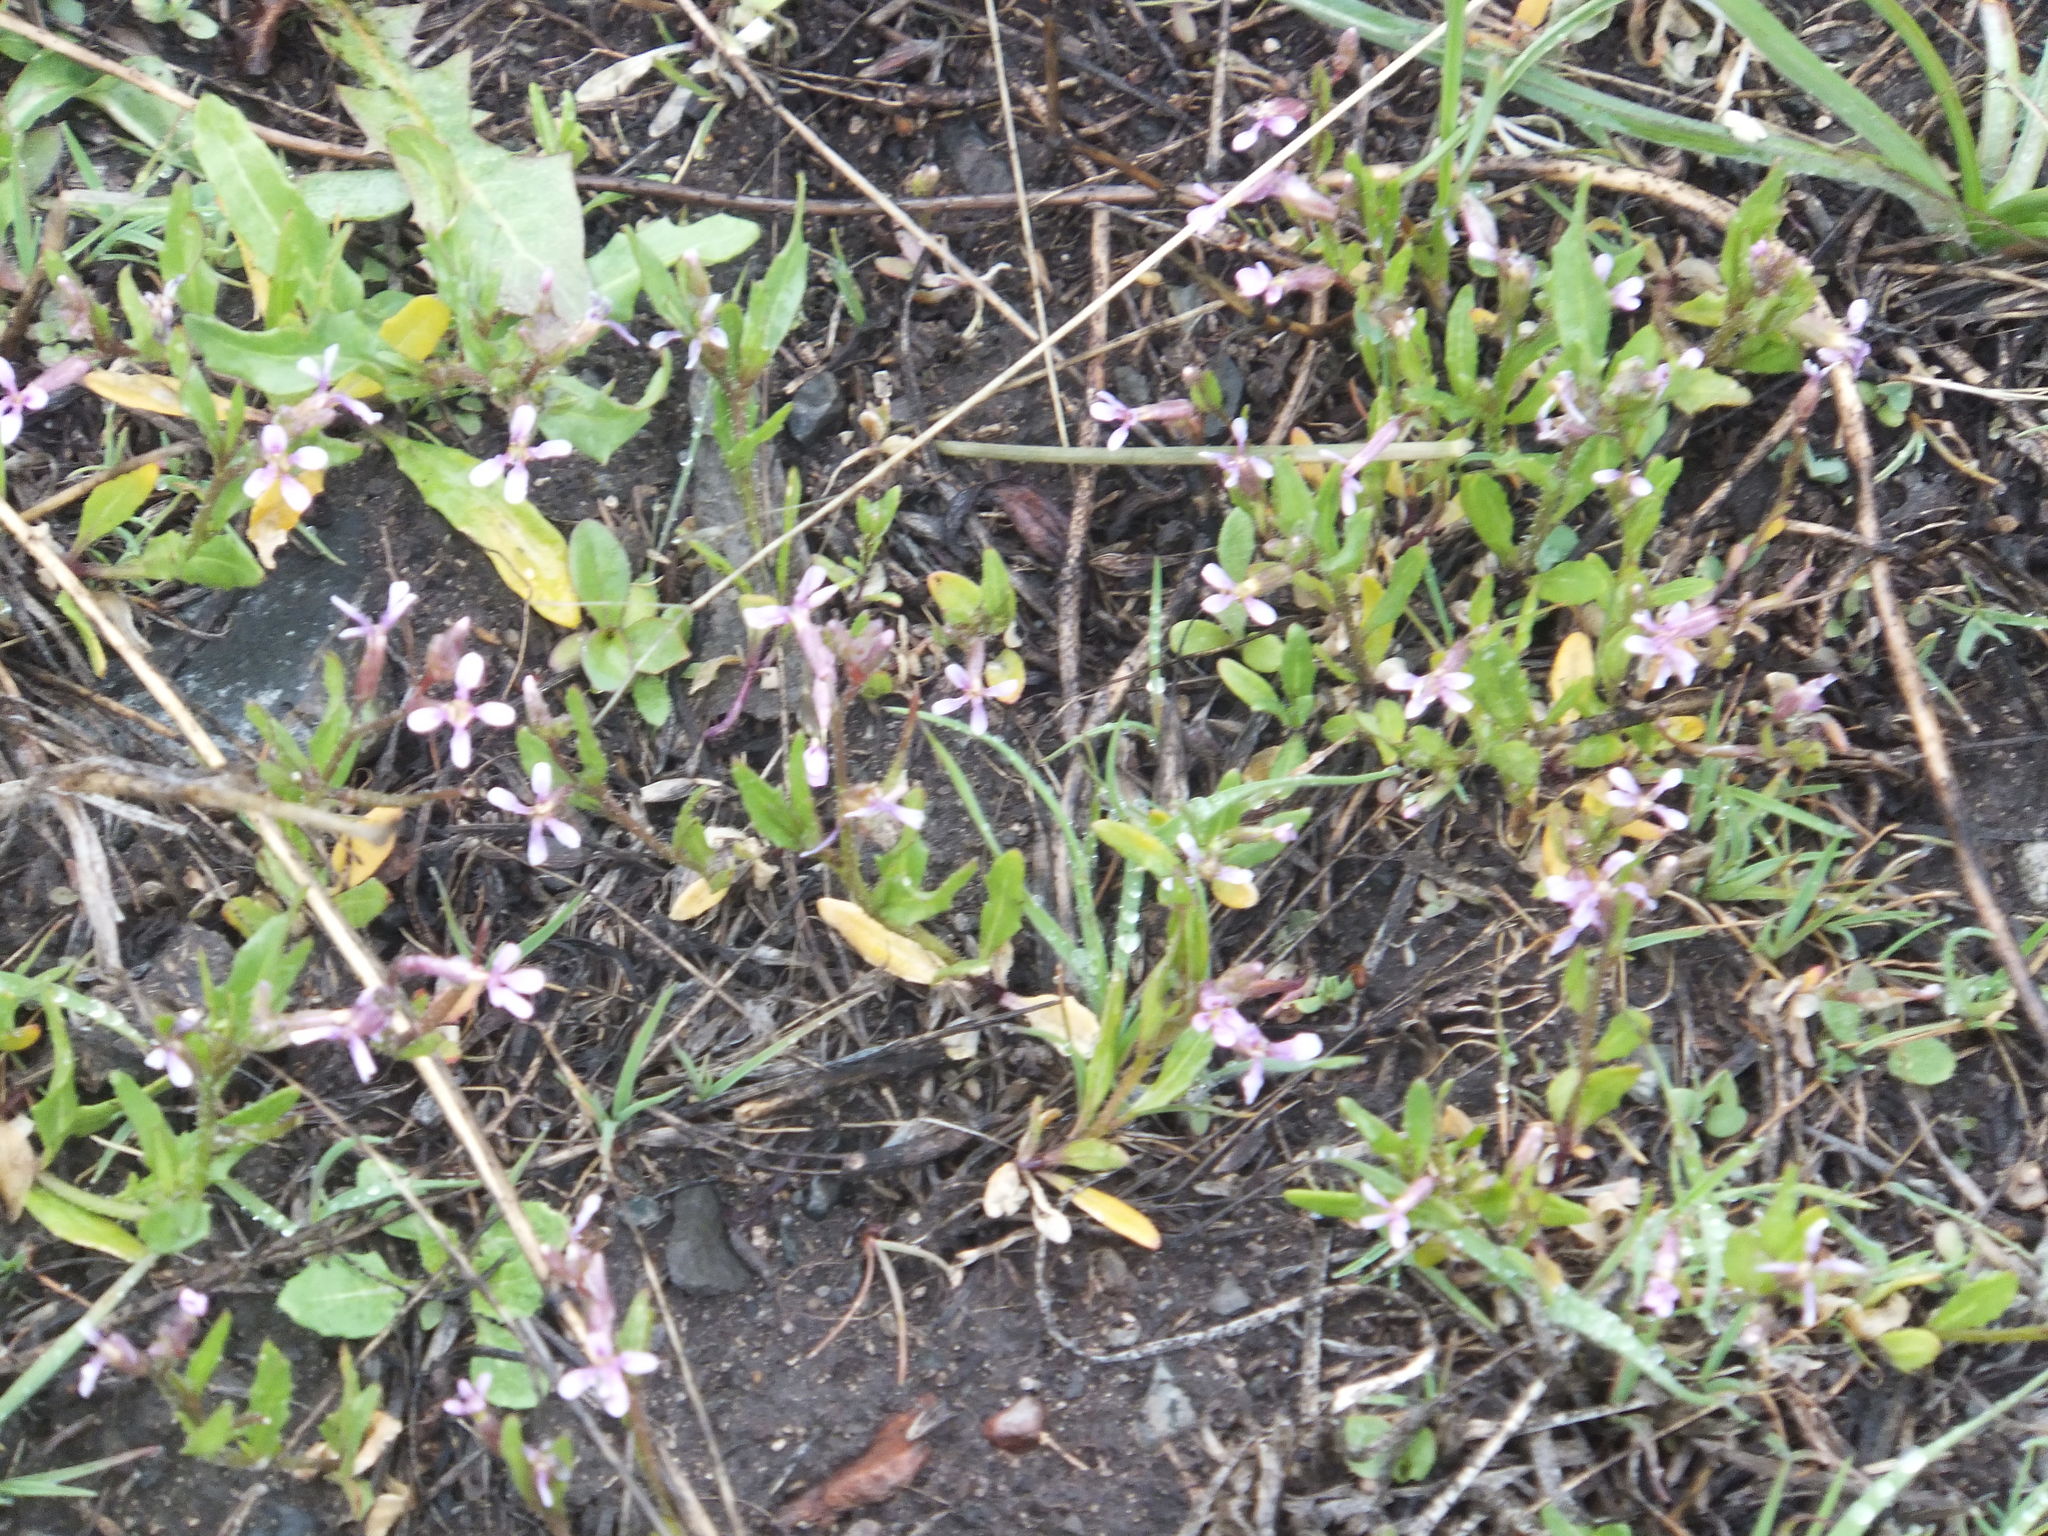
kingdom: Plantae
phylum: Tracheophyta
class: Magnoliopsida
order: Brassicales
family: Brassicaceae
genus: Chorispora
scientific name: Chorispora tenella
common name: Crossflower
